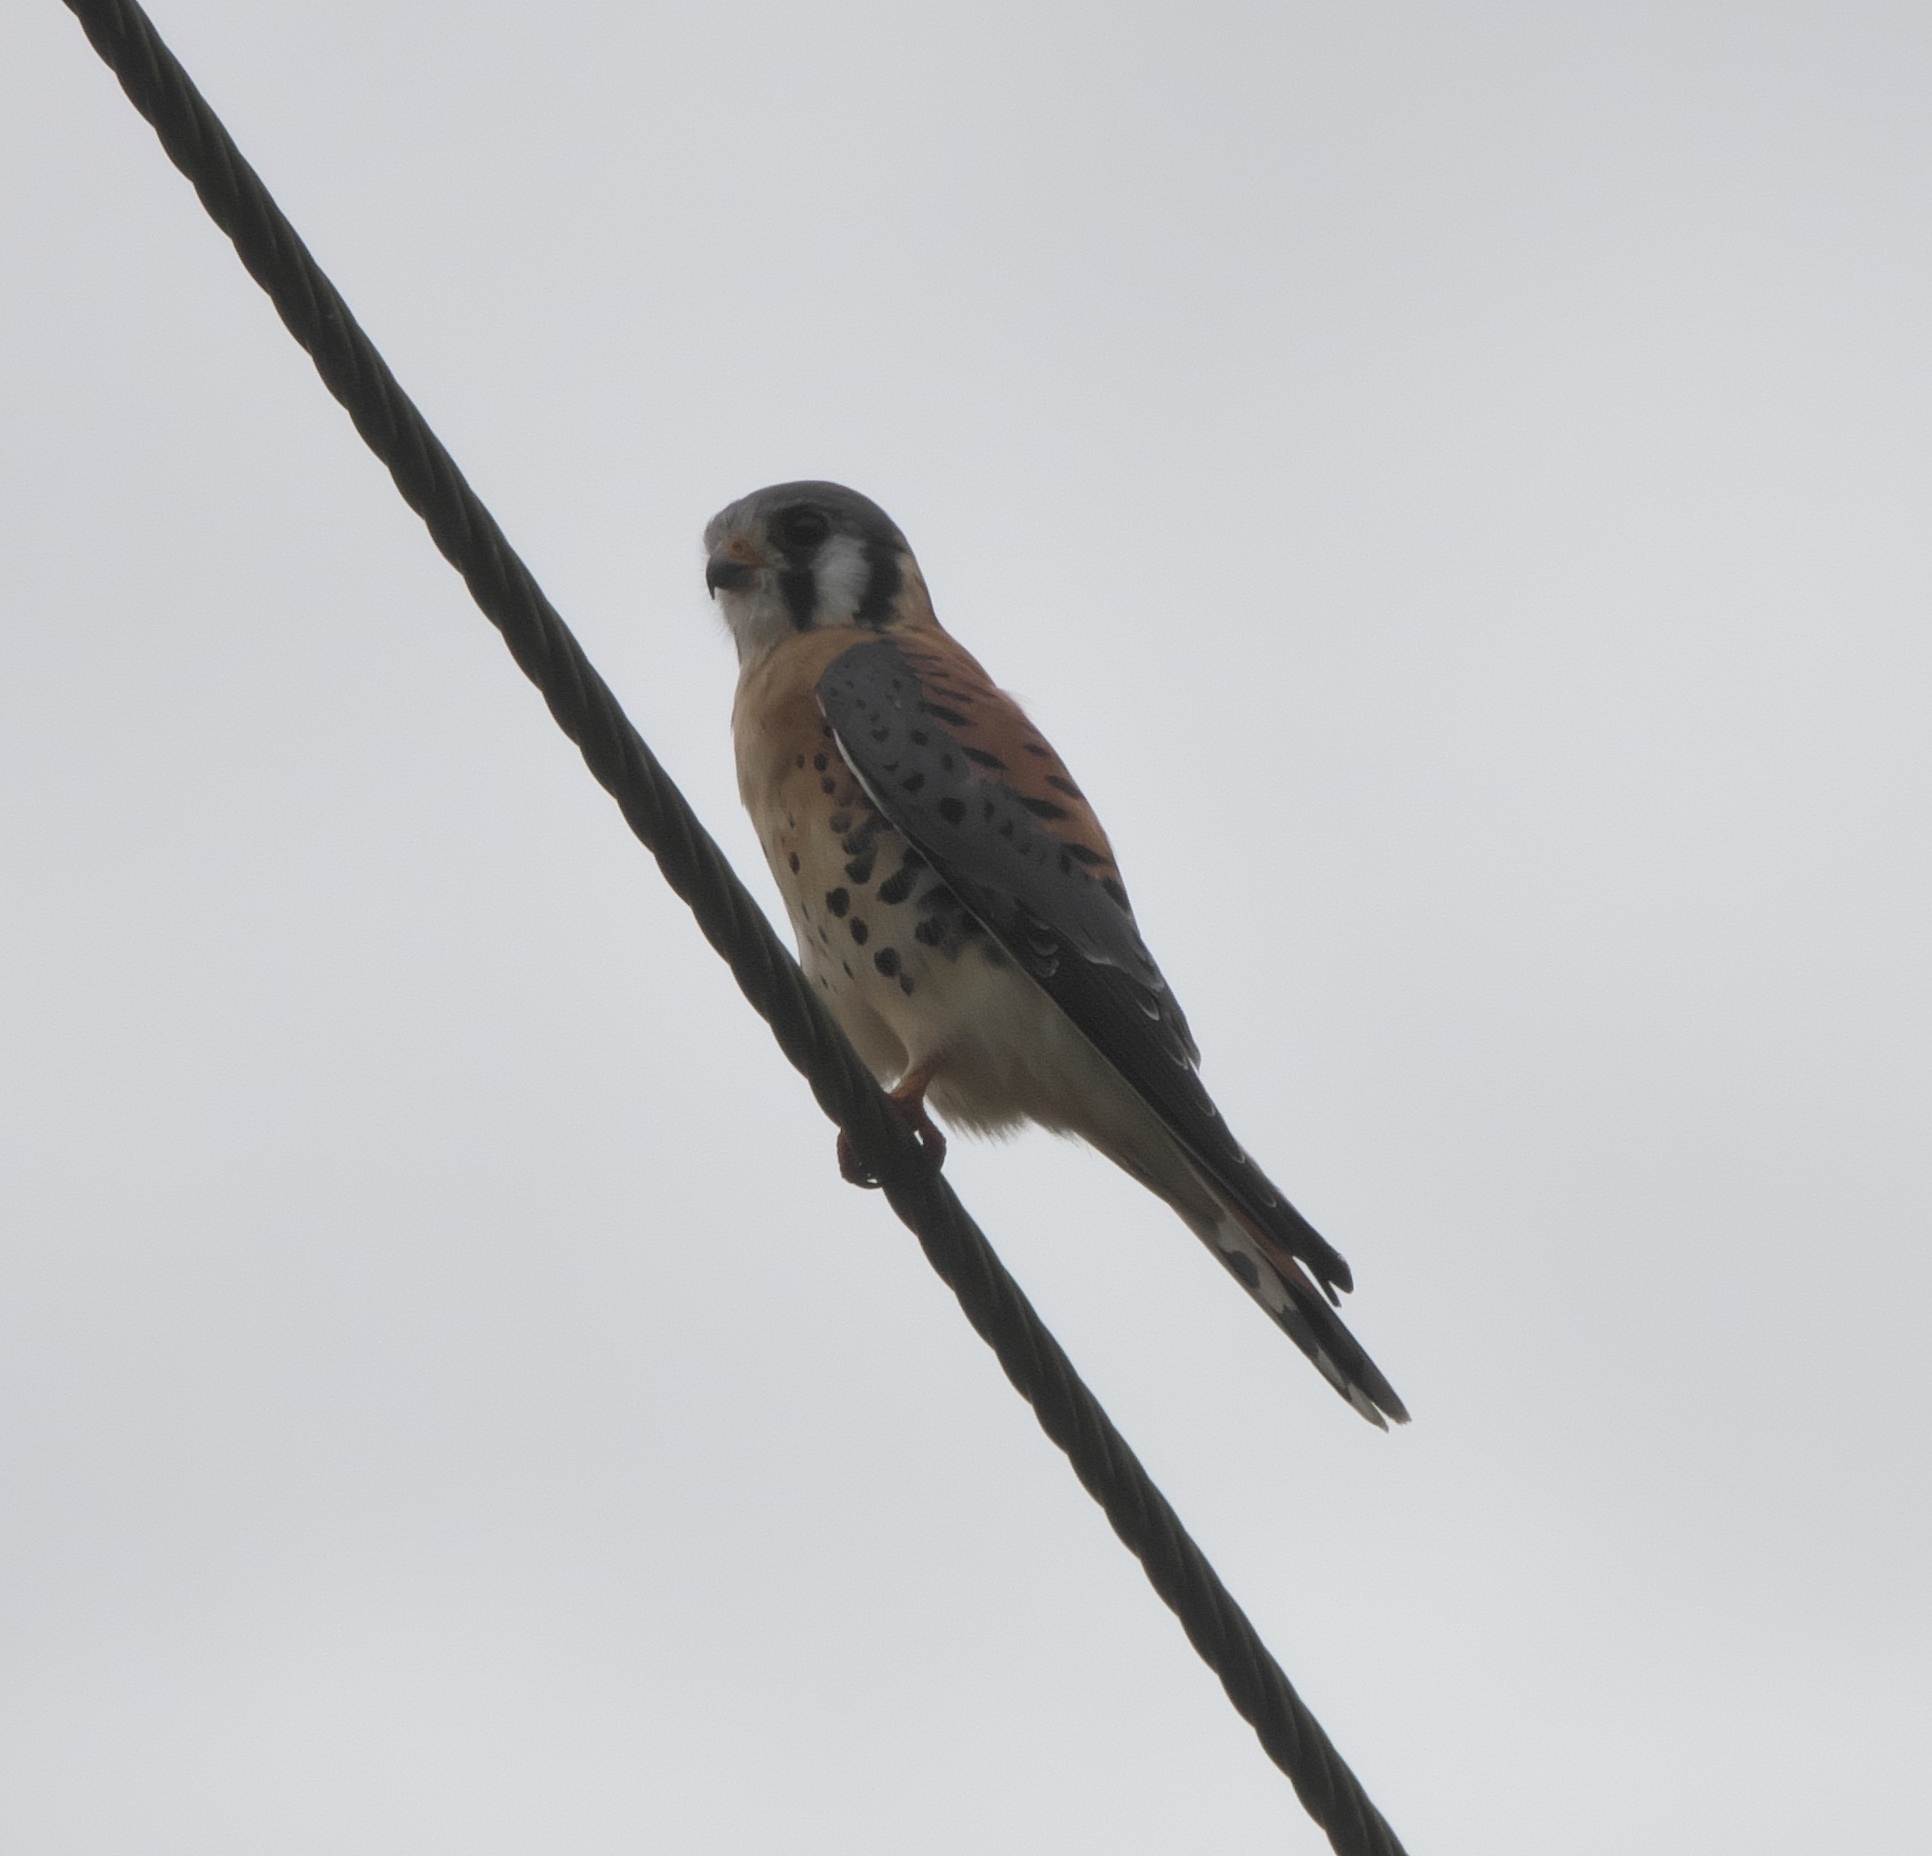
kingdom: Animalia
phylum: Chordata
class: Aves
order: Falconiformes
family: Falconidae
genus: Falco
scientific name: Falco sparverius
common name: American kestrel
